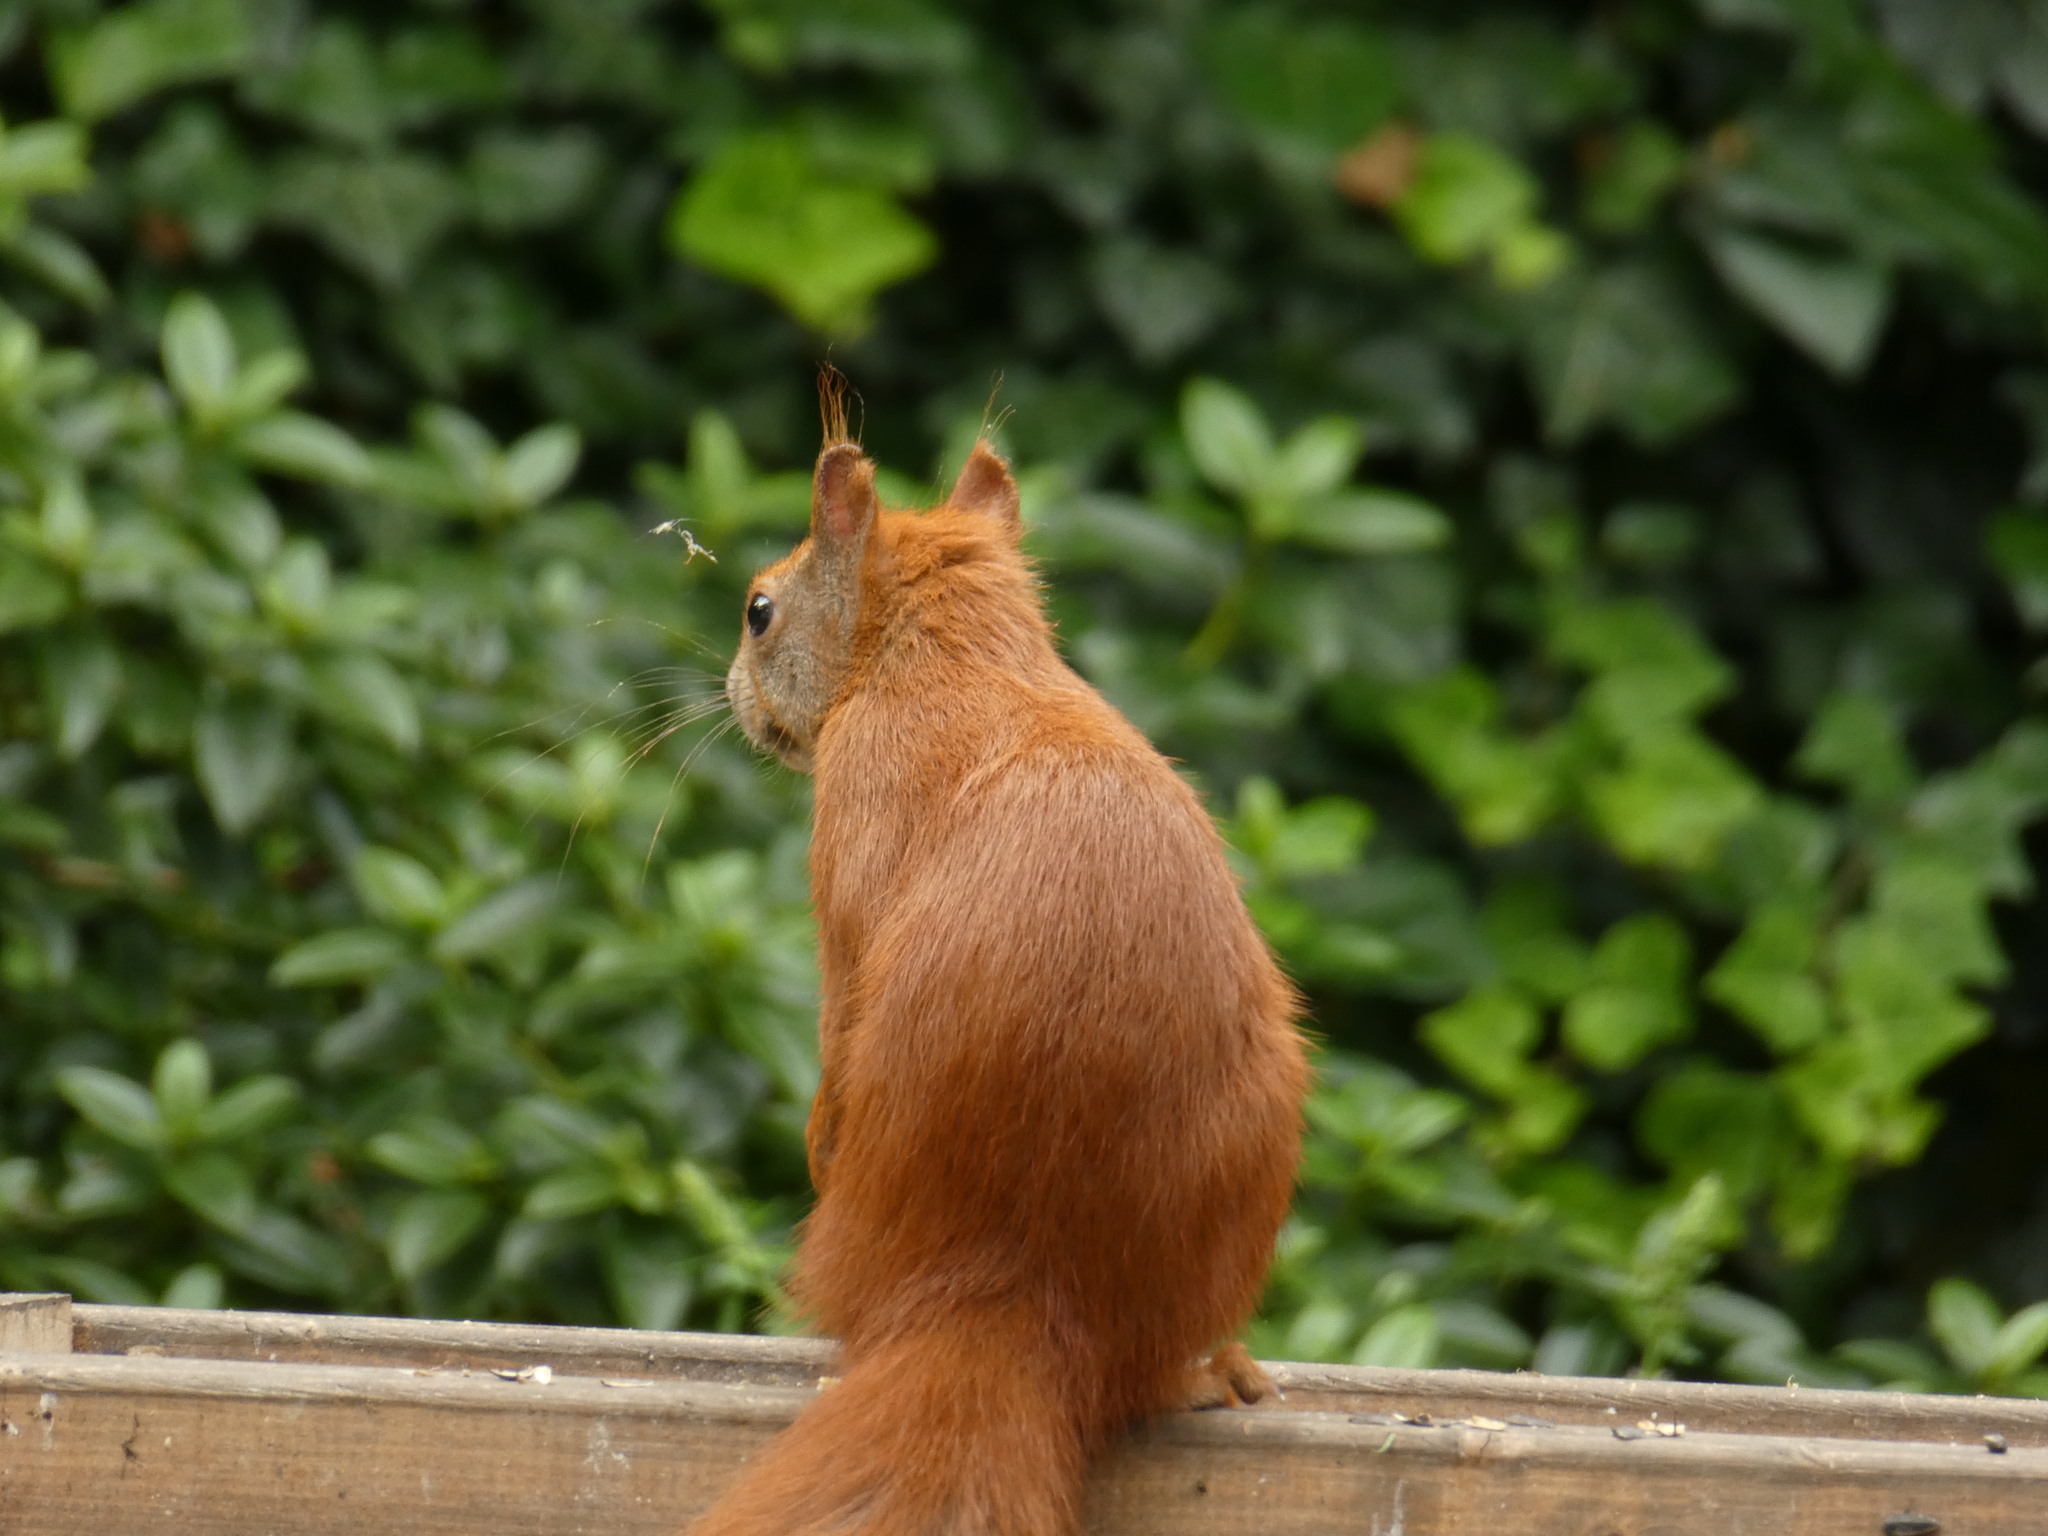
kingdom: Animalia
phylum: Chordata
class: Mammalia
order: Rodentia
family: Sciuridae
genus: Sciurus
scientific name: Sciurus vulgaris
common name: Eurasian red squirrel
